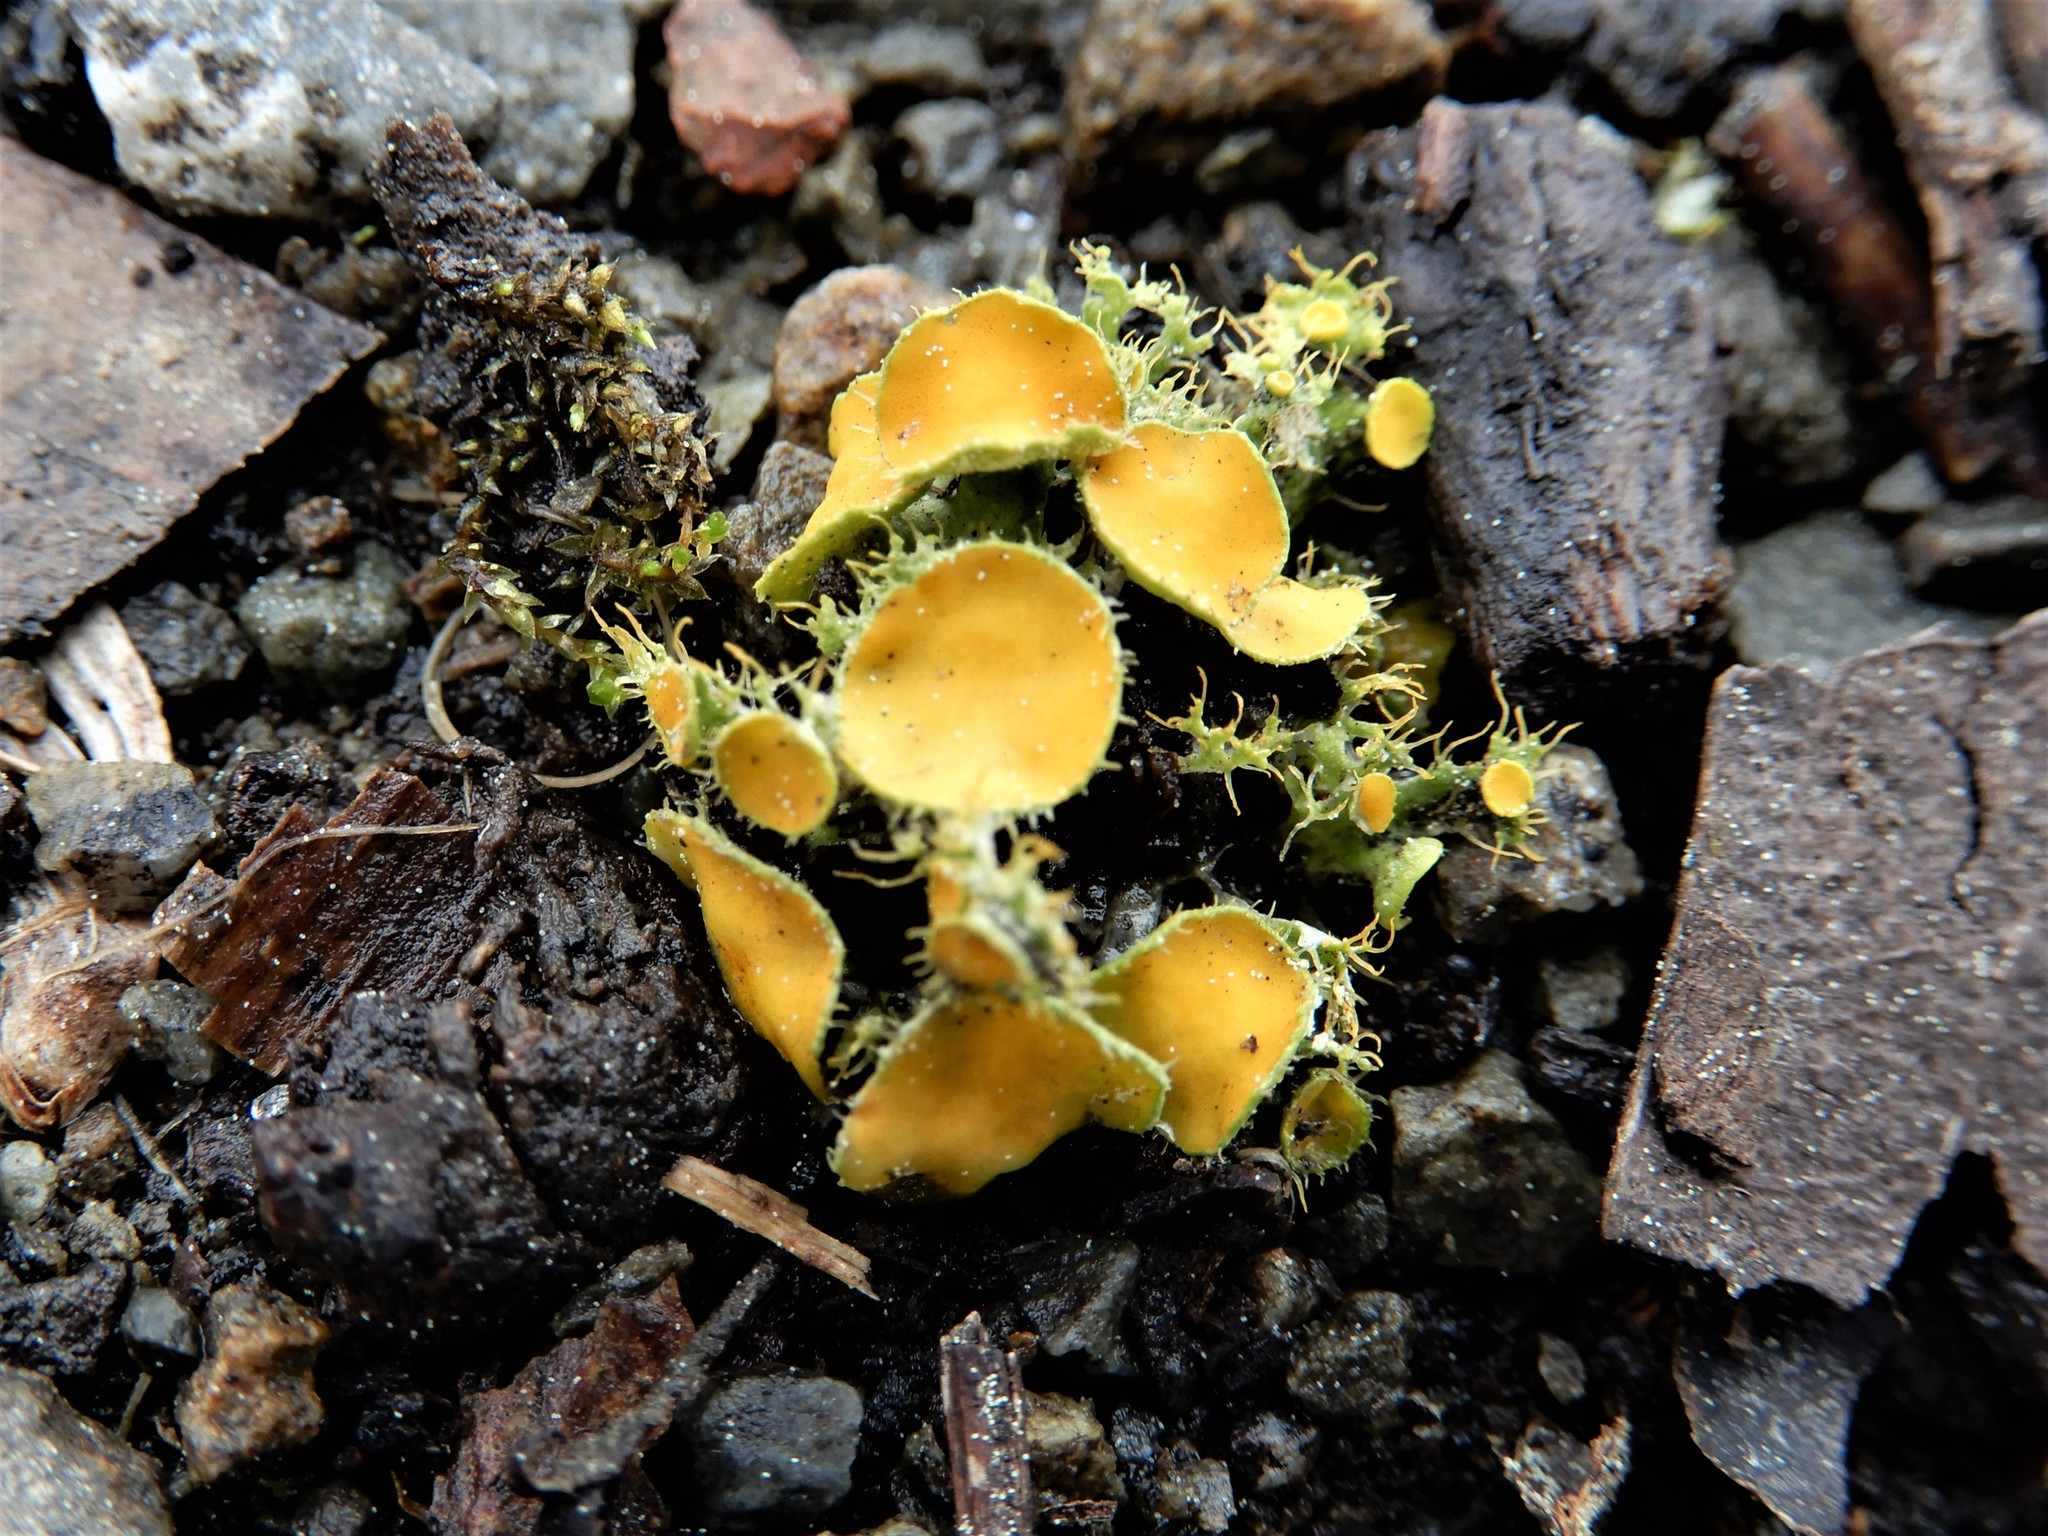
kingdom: Fungi
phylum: Ascomycota
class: Lecanoromycetes
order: Teloschistales
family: Teloschistaceae
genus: Niorma
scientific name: Niorma chrysophthalma
